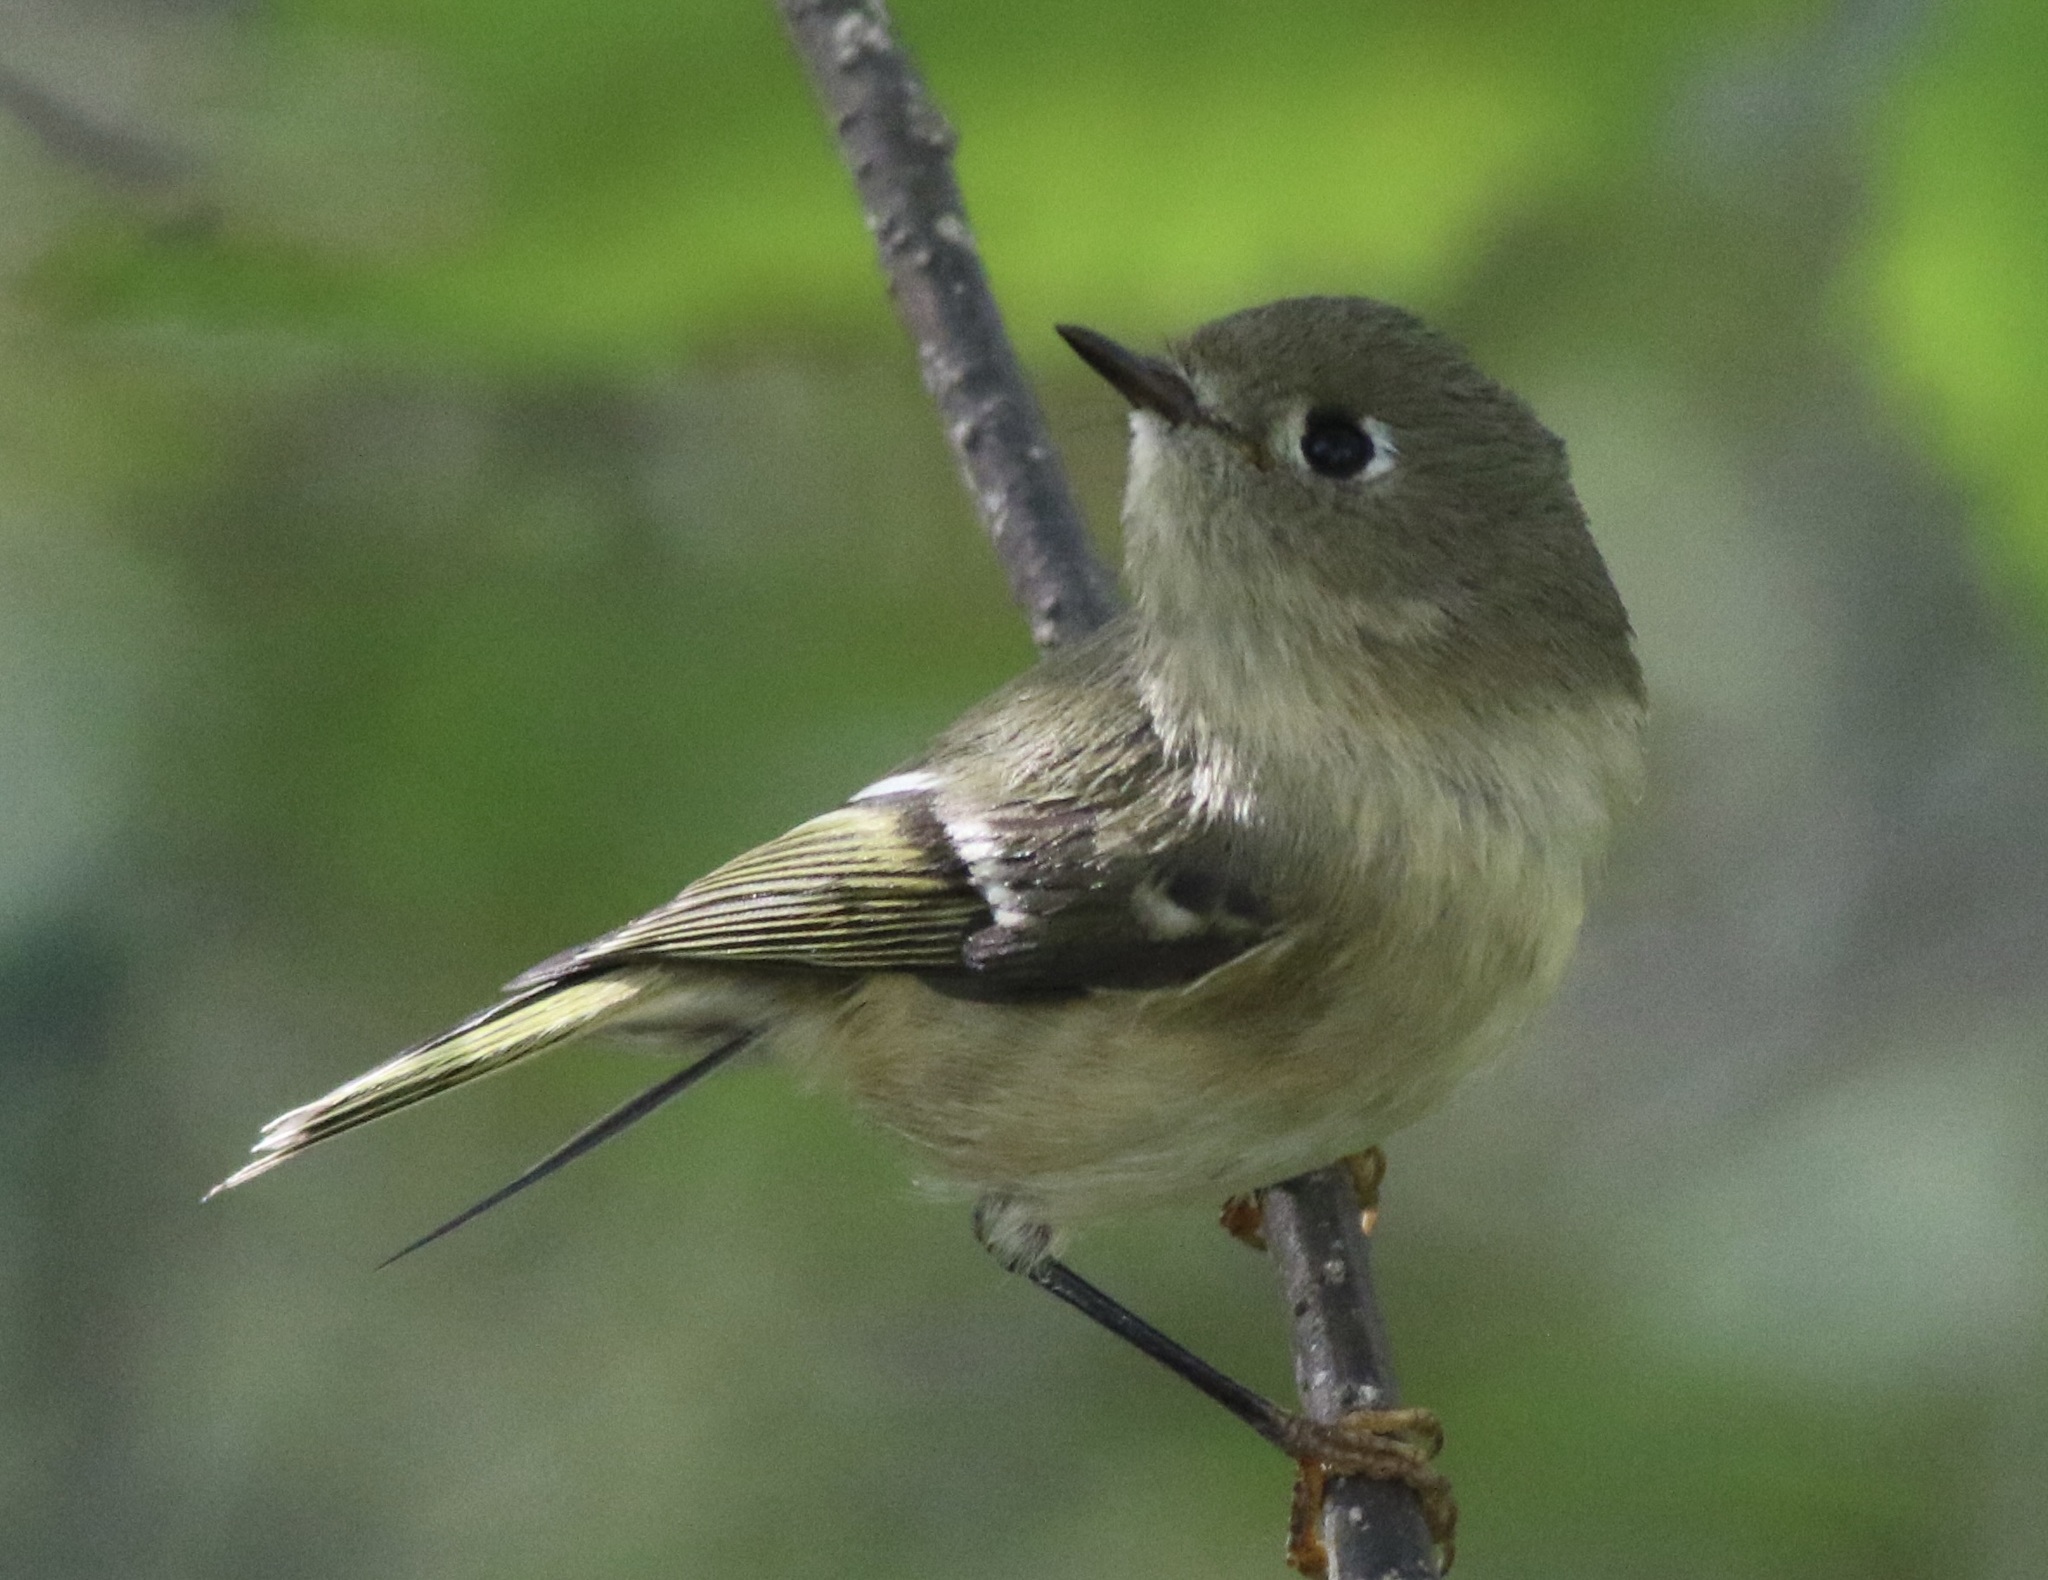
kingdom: Animalia
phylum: Chordata
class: Aves
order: Passeriformes
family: Regulidae
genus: Regulus
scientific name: Regulus calendula
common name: Ruby-crowned kinglet
